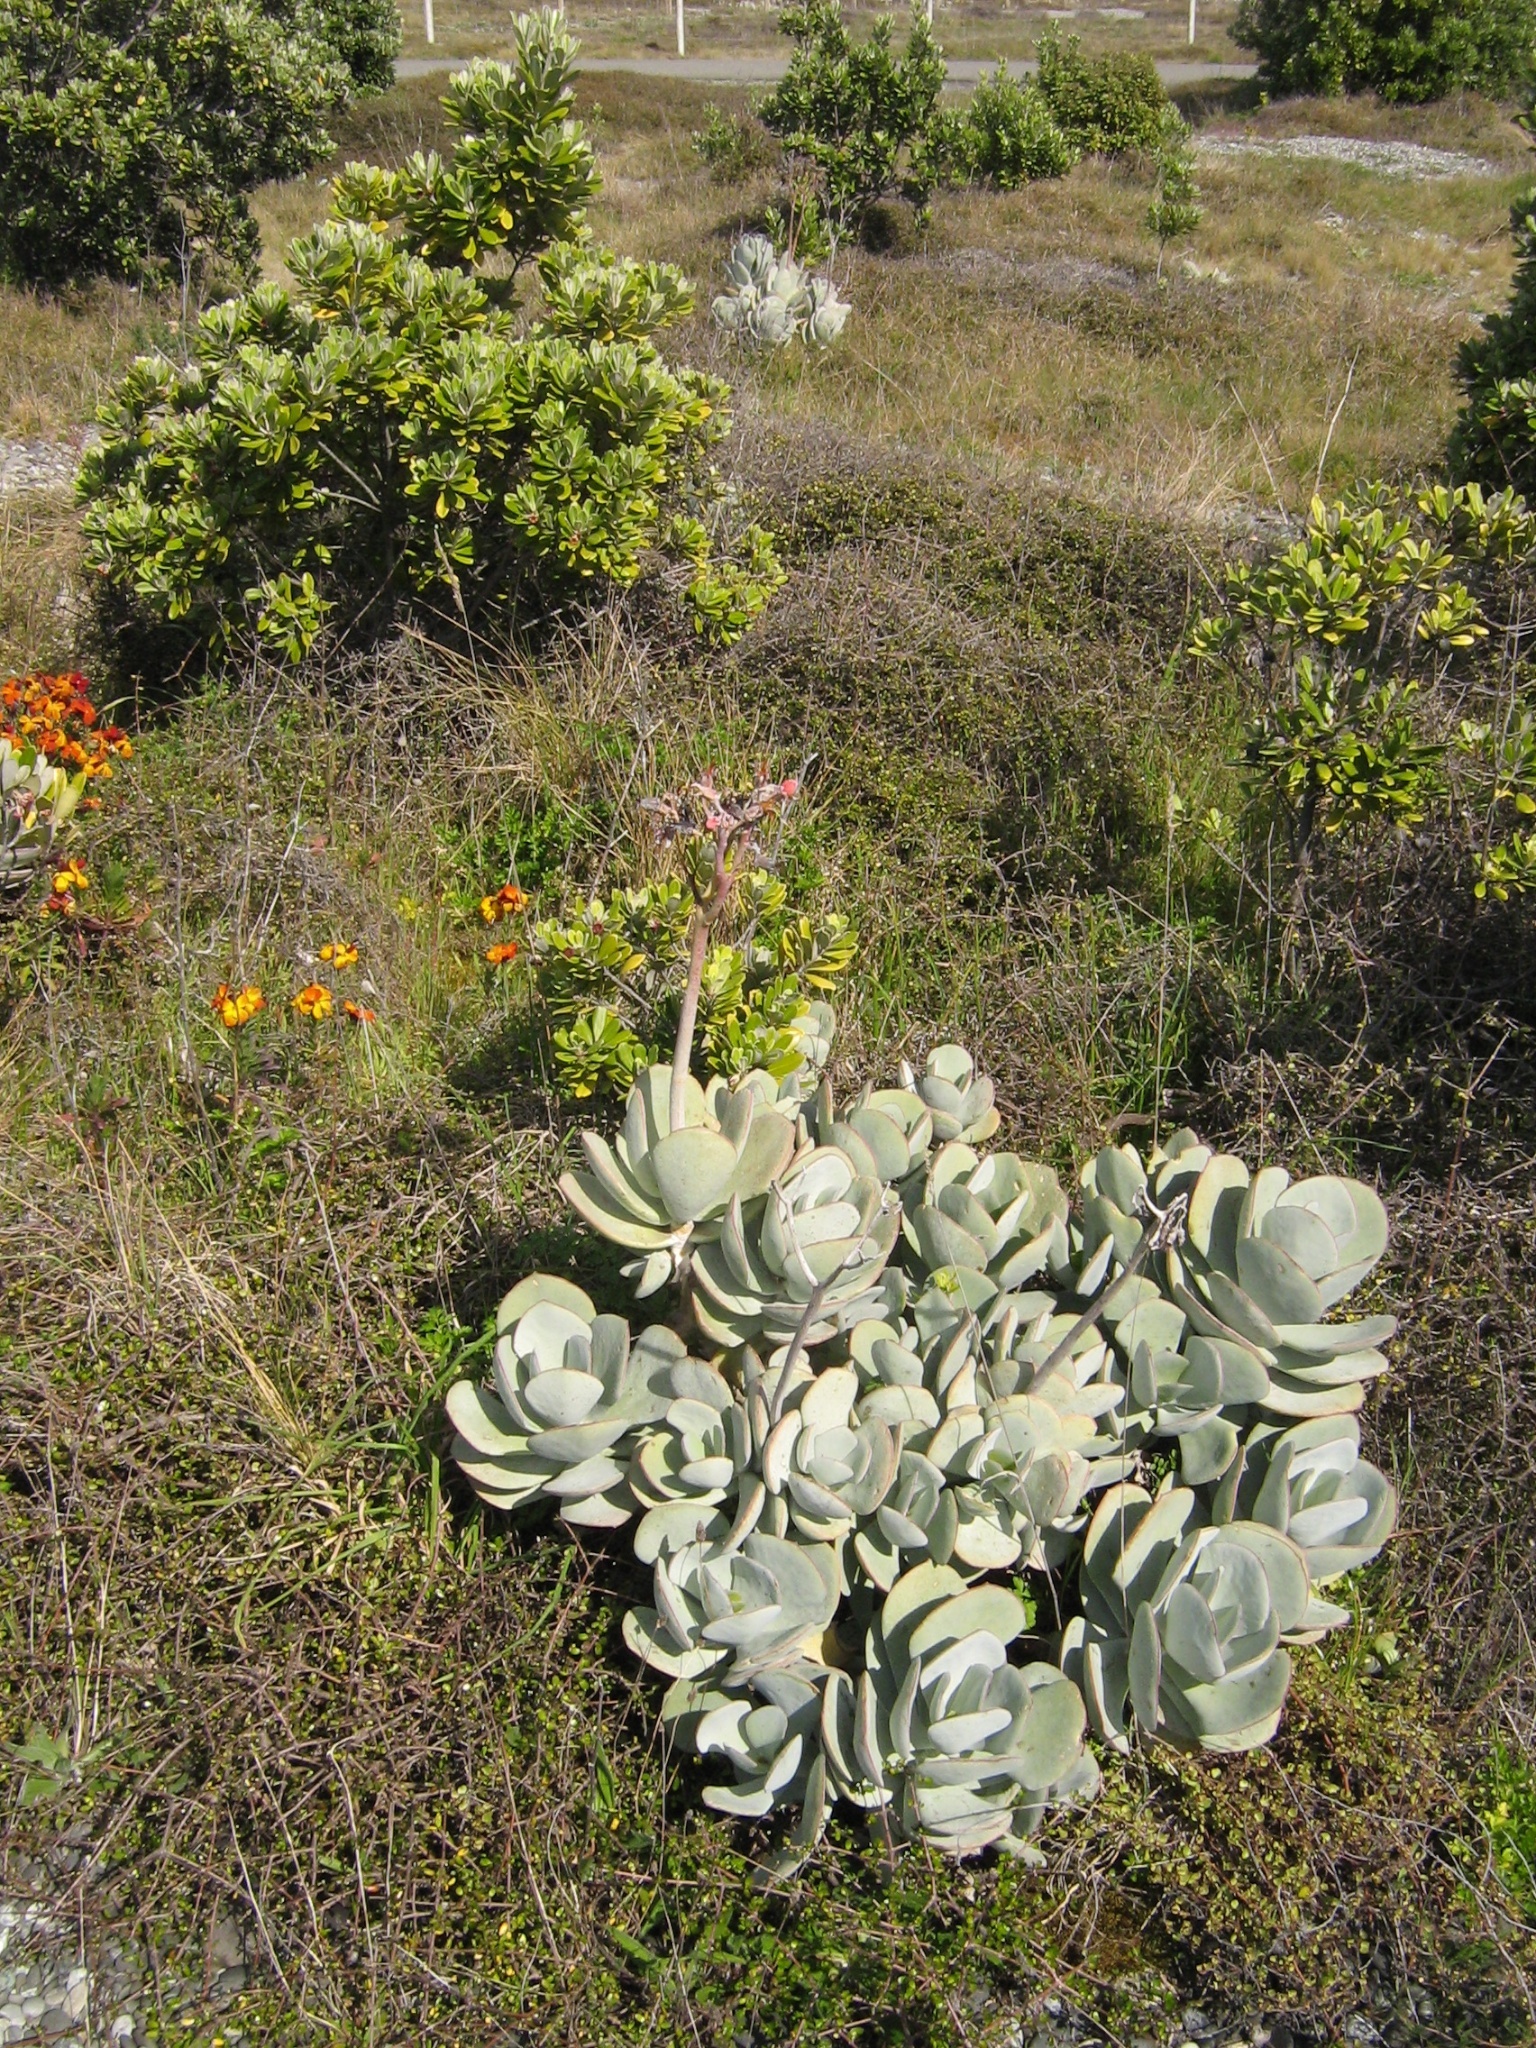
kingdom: Plantae
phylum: Tracheophyta
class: Magnoliopsida
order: Saxifragales
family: Crassulaceae
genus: Cotyledon
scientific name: Cotyledon orbiculata
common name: Pig's ear
